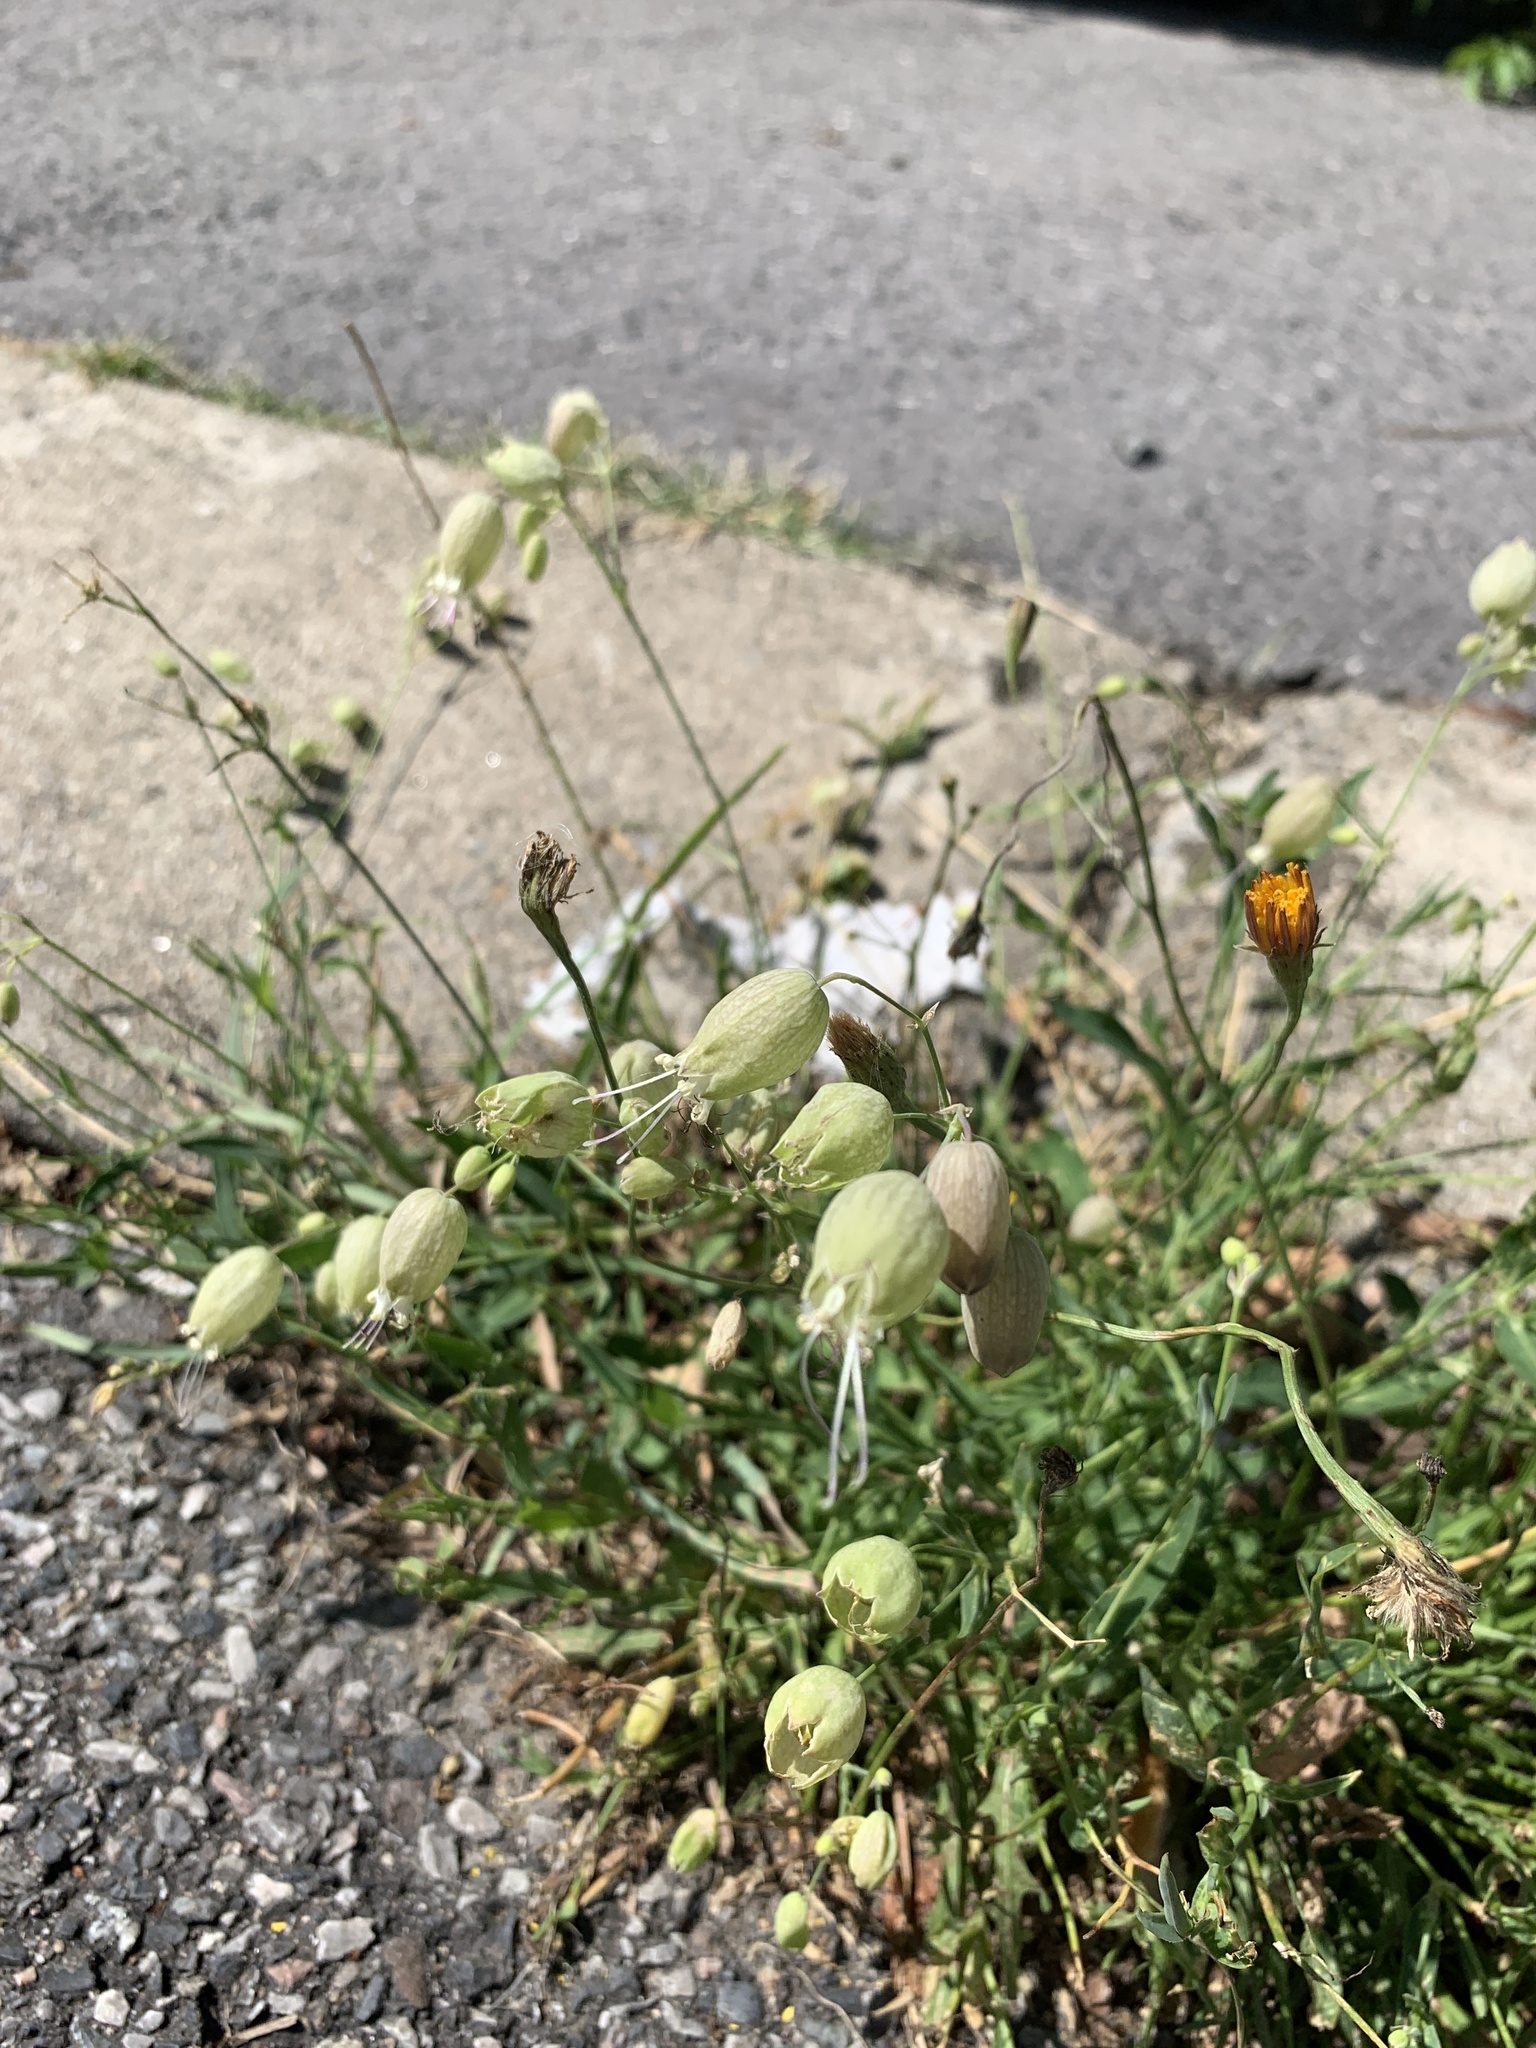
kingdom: Plantae
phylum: Tracheophyta
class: Magnoliopsida
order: Caryophyllales
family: Caryophyllaceae
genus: Silene
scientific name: Silene vulgaris
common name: Bladder campion
